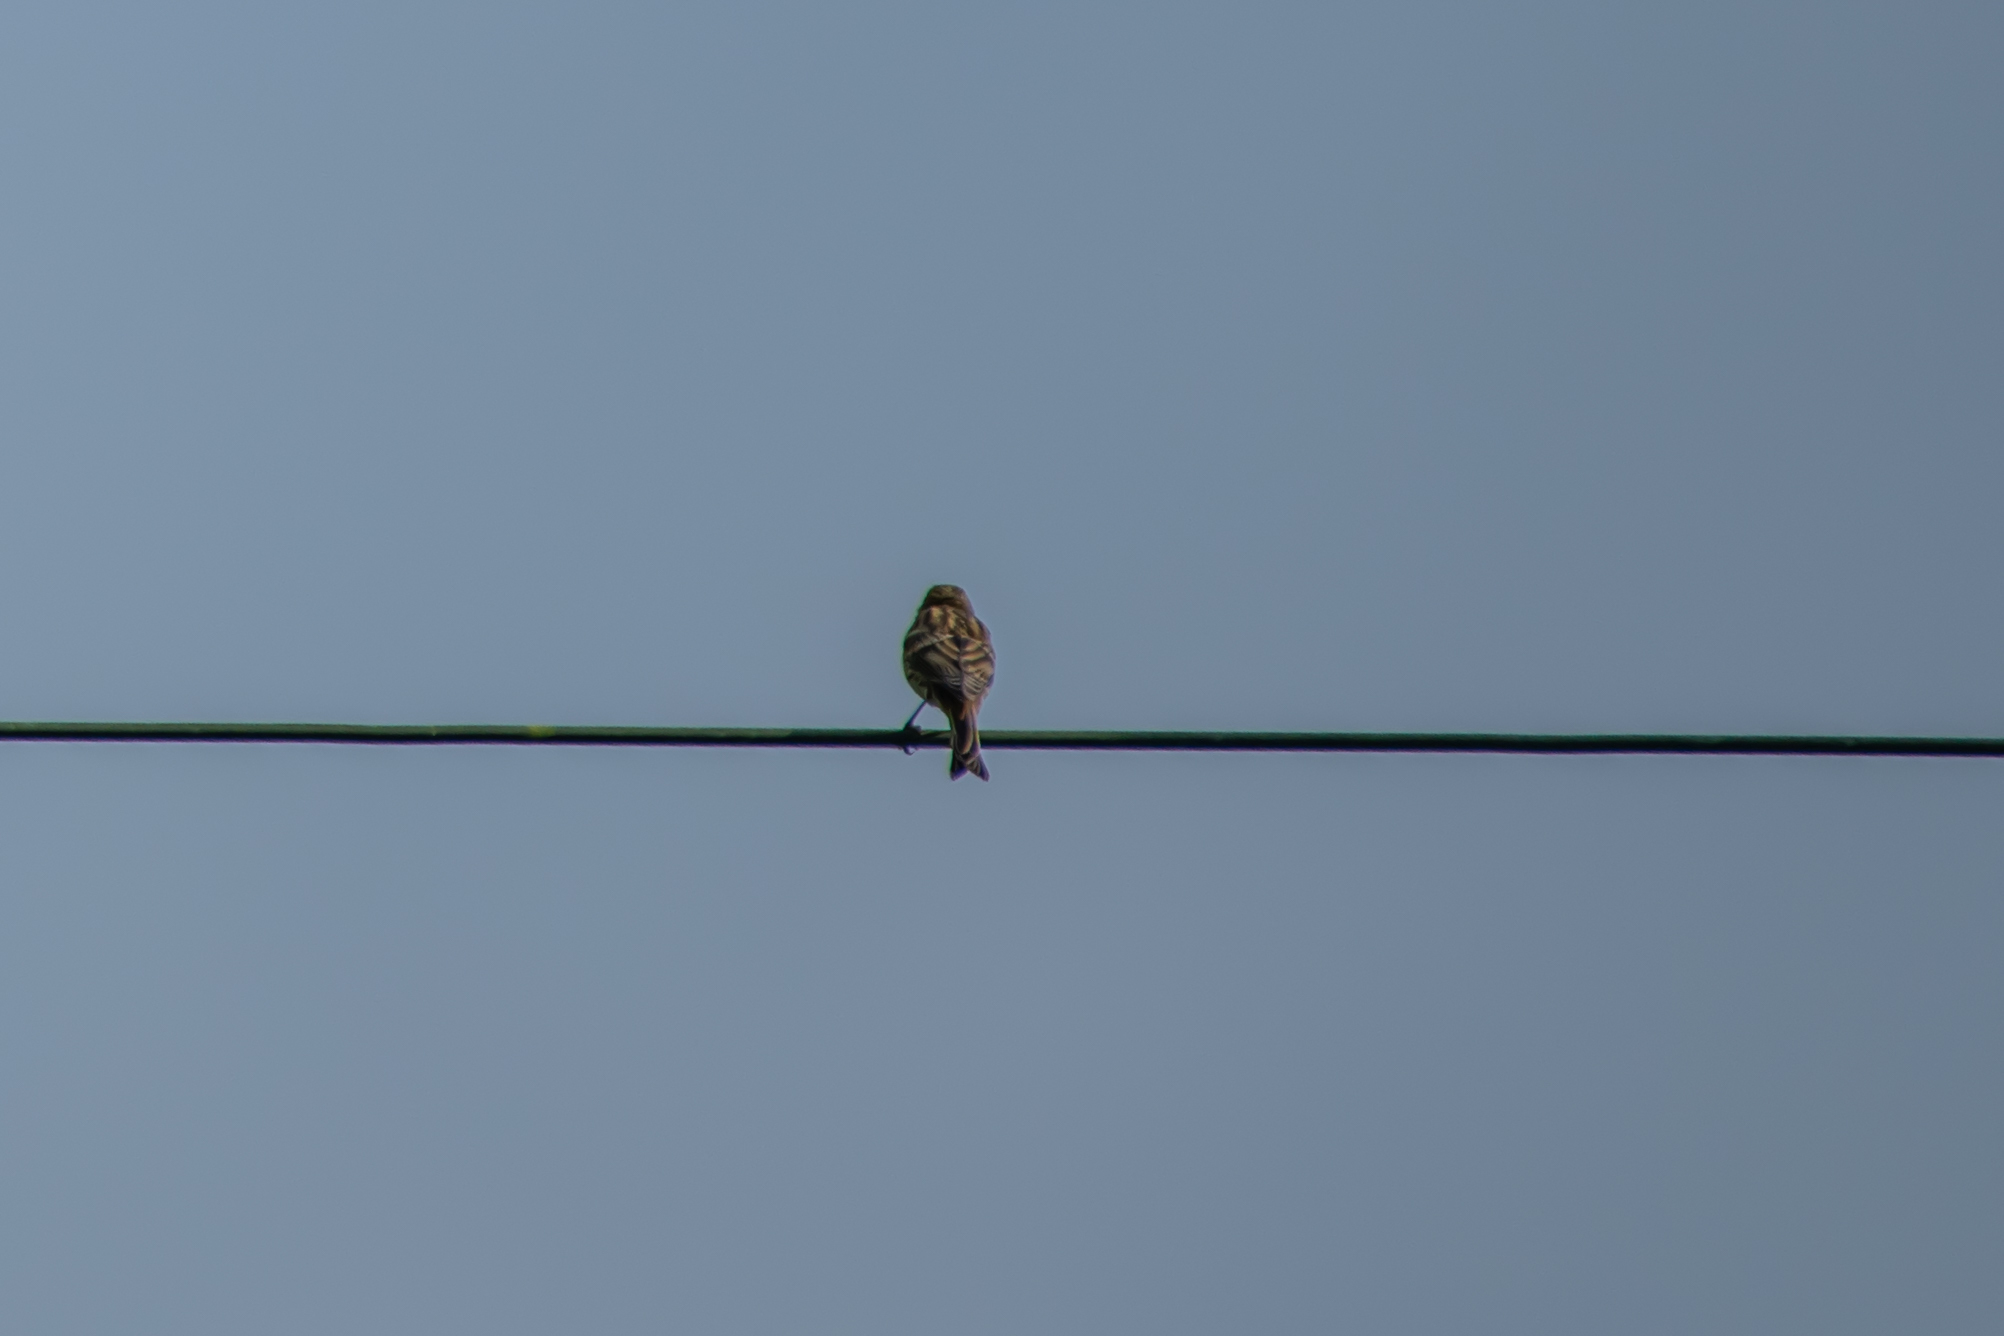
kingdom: Animalia
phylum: Chordata
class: Aves
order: Passeriformes
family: Fringillidae
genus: Serinus
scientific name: Serinus serinus
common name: European serin
